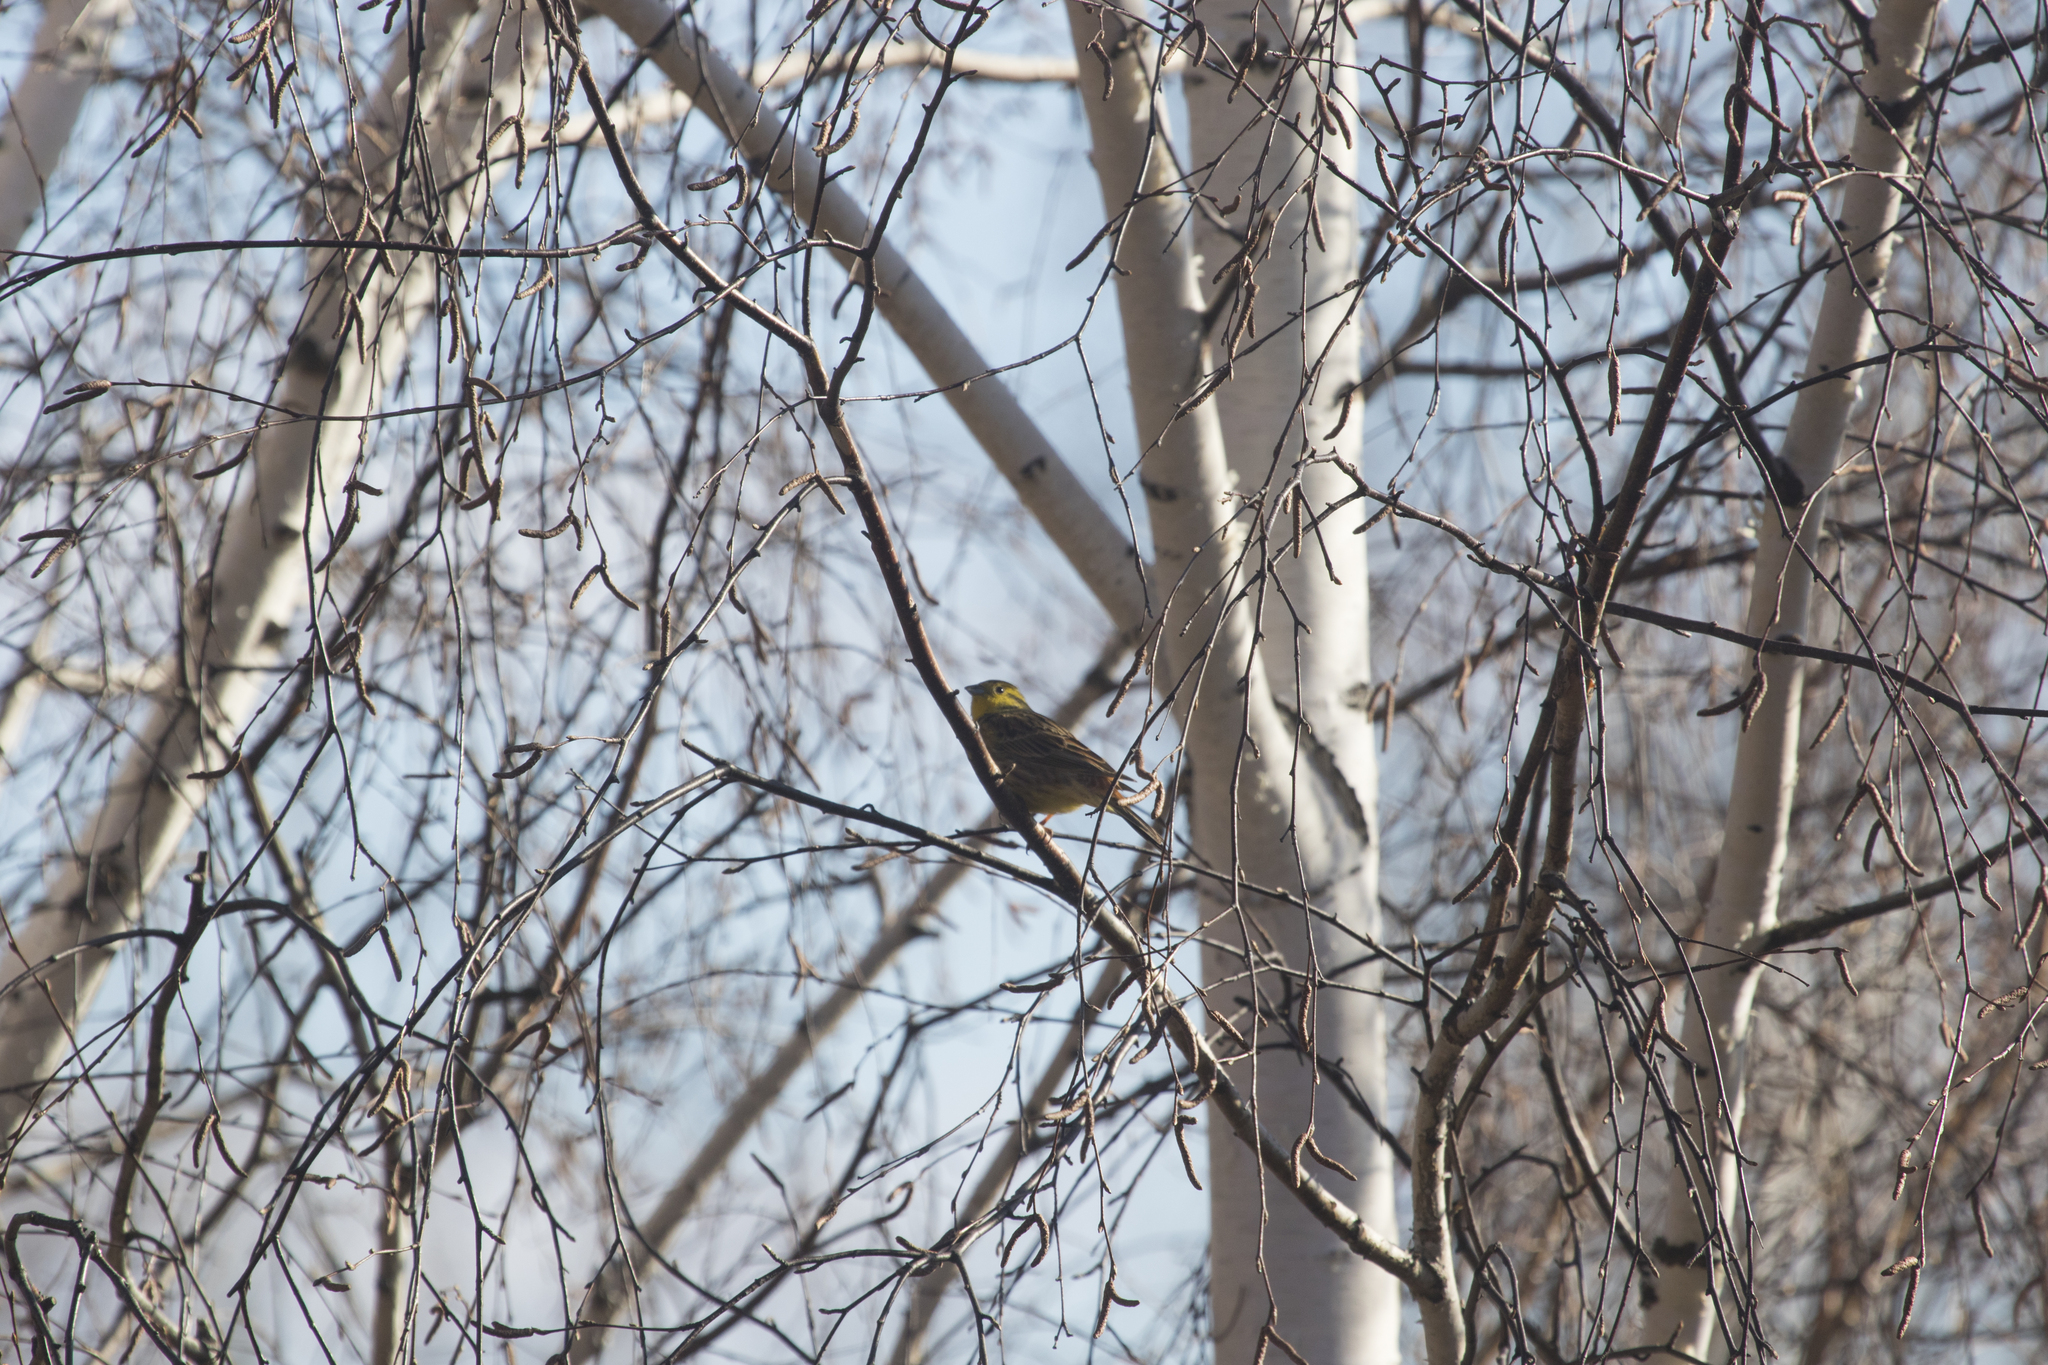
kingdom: Animalia
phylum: Chordata
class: Aves
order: Passeriformes
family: Emberizidae
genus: Emberiza
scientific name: Emberiza citrinella
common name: Yellowhammer
